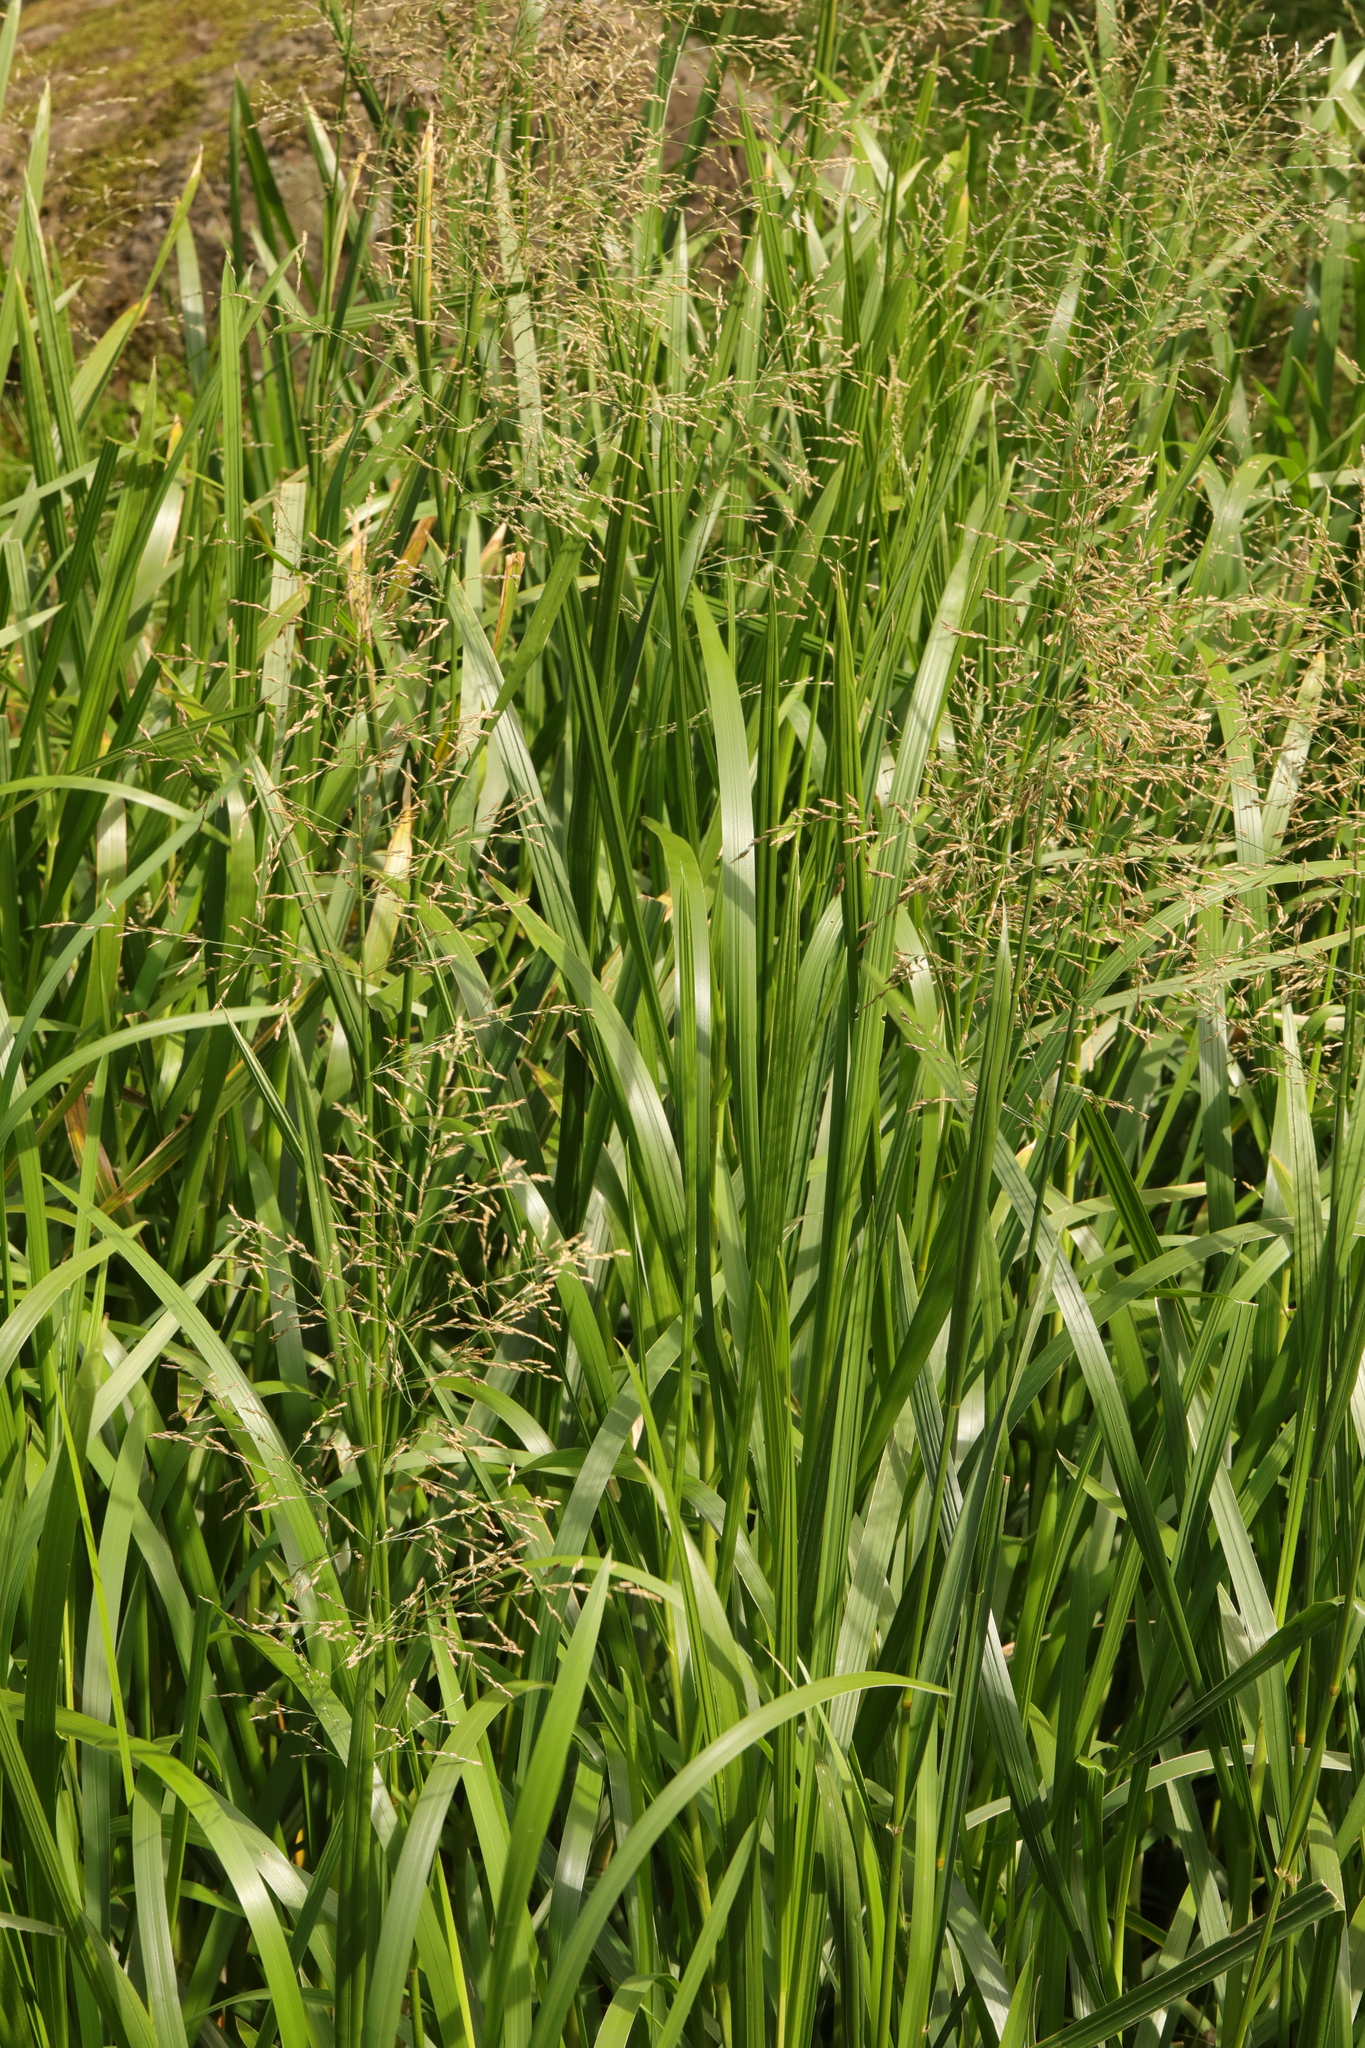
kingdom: Plantae
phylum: Tracheophyta
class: Liliopsida
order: Poales
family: Poaceae
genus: Glyceria
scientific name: Glyceria maxima
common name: Reed mannagrass
